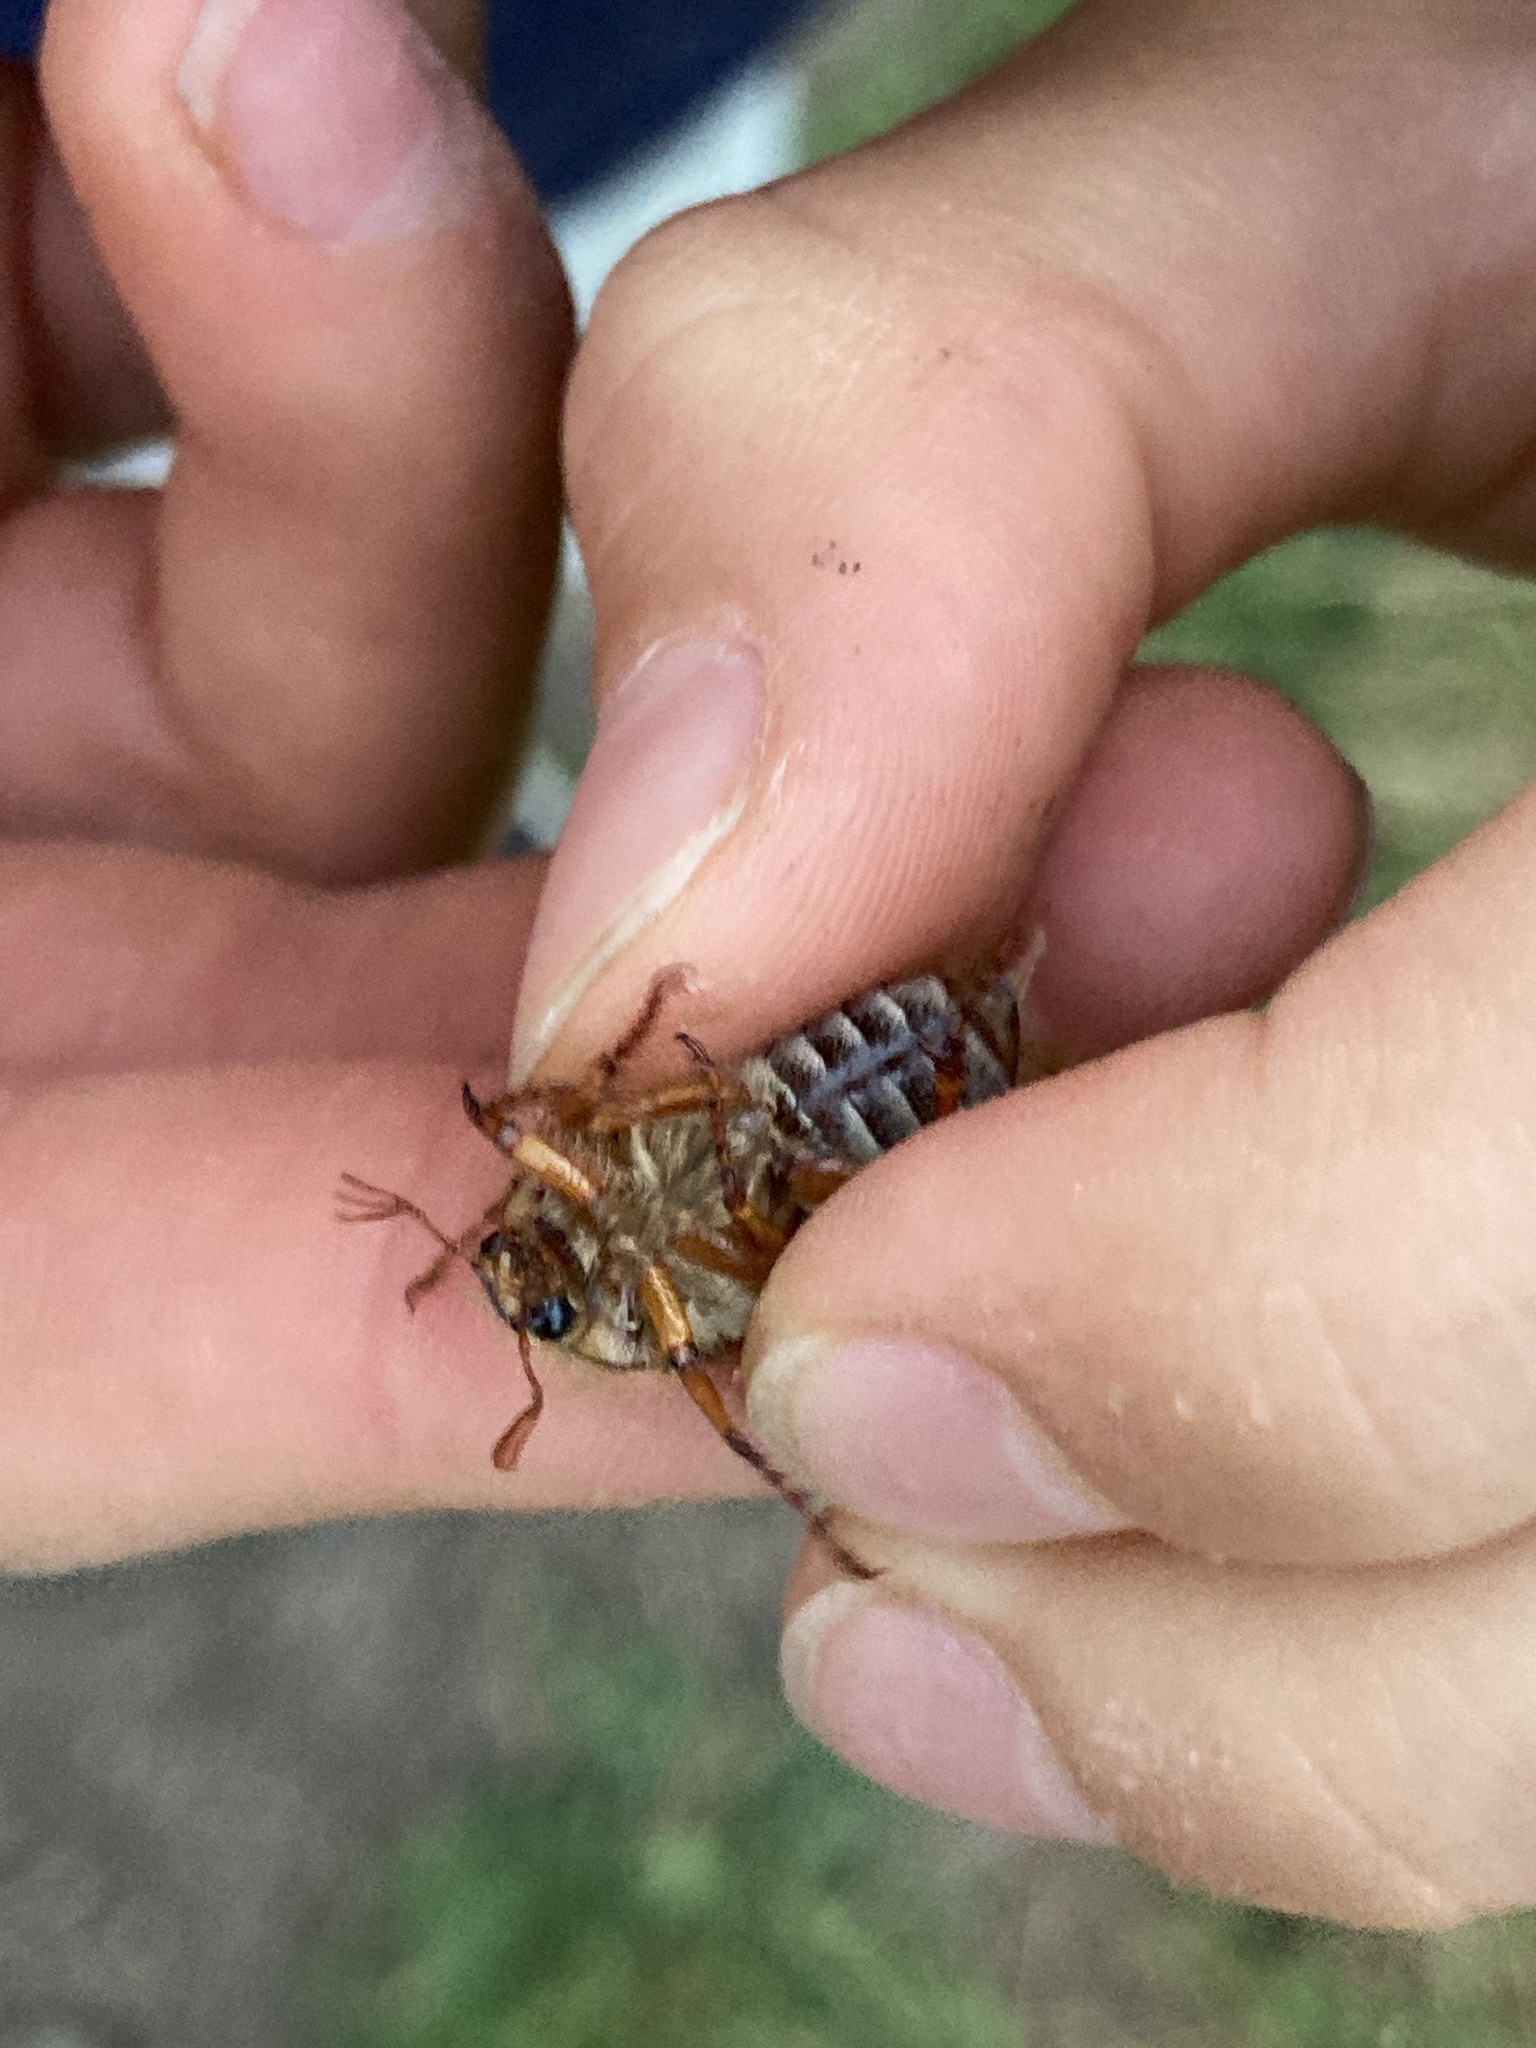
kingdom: Animalia
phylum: Arthropoda
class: Insecta
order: Coleoptera
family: Scarabaeidae
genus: Amphimallon
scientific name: Amphimallon solstitiale
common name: Summer chafer
